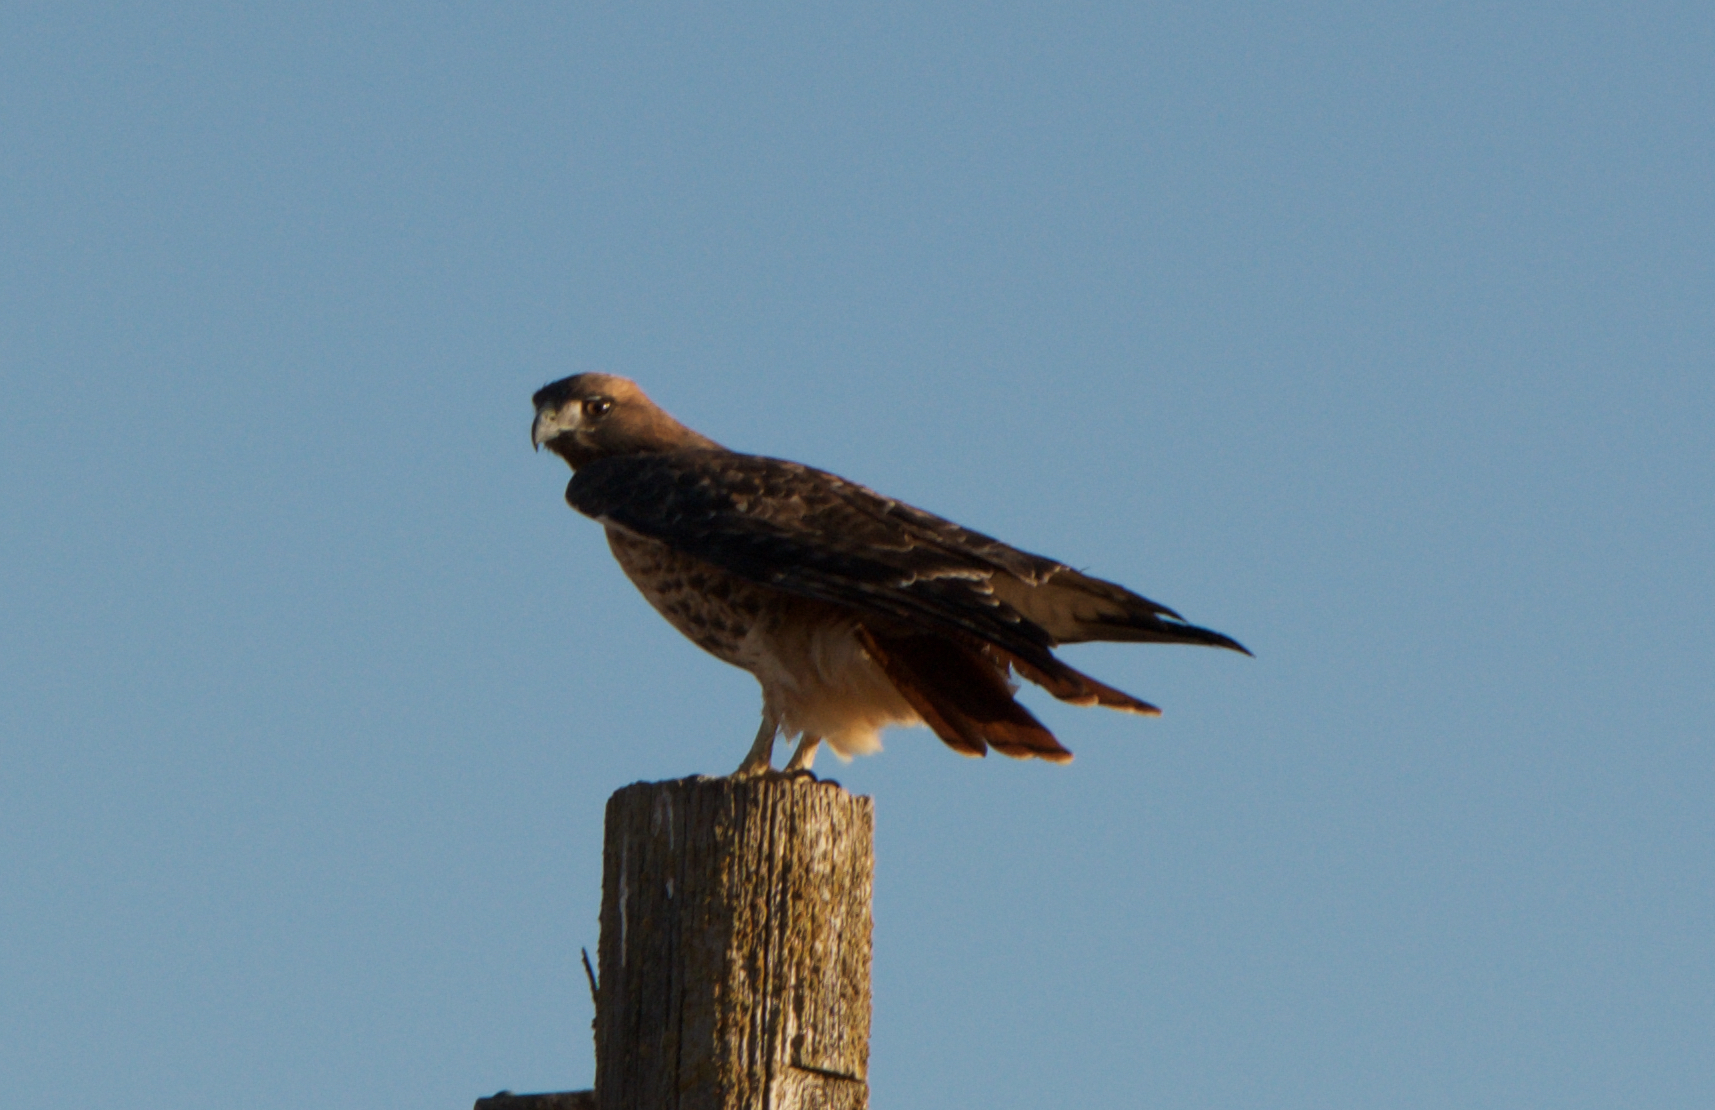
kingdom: Animalia
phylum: Chordata
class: Aves
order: Accipitriformes
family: Accipitridae
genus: Buteo
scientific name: Buteo jamaicensis
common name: Red-tailed hawk
